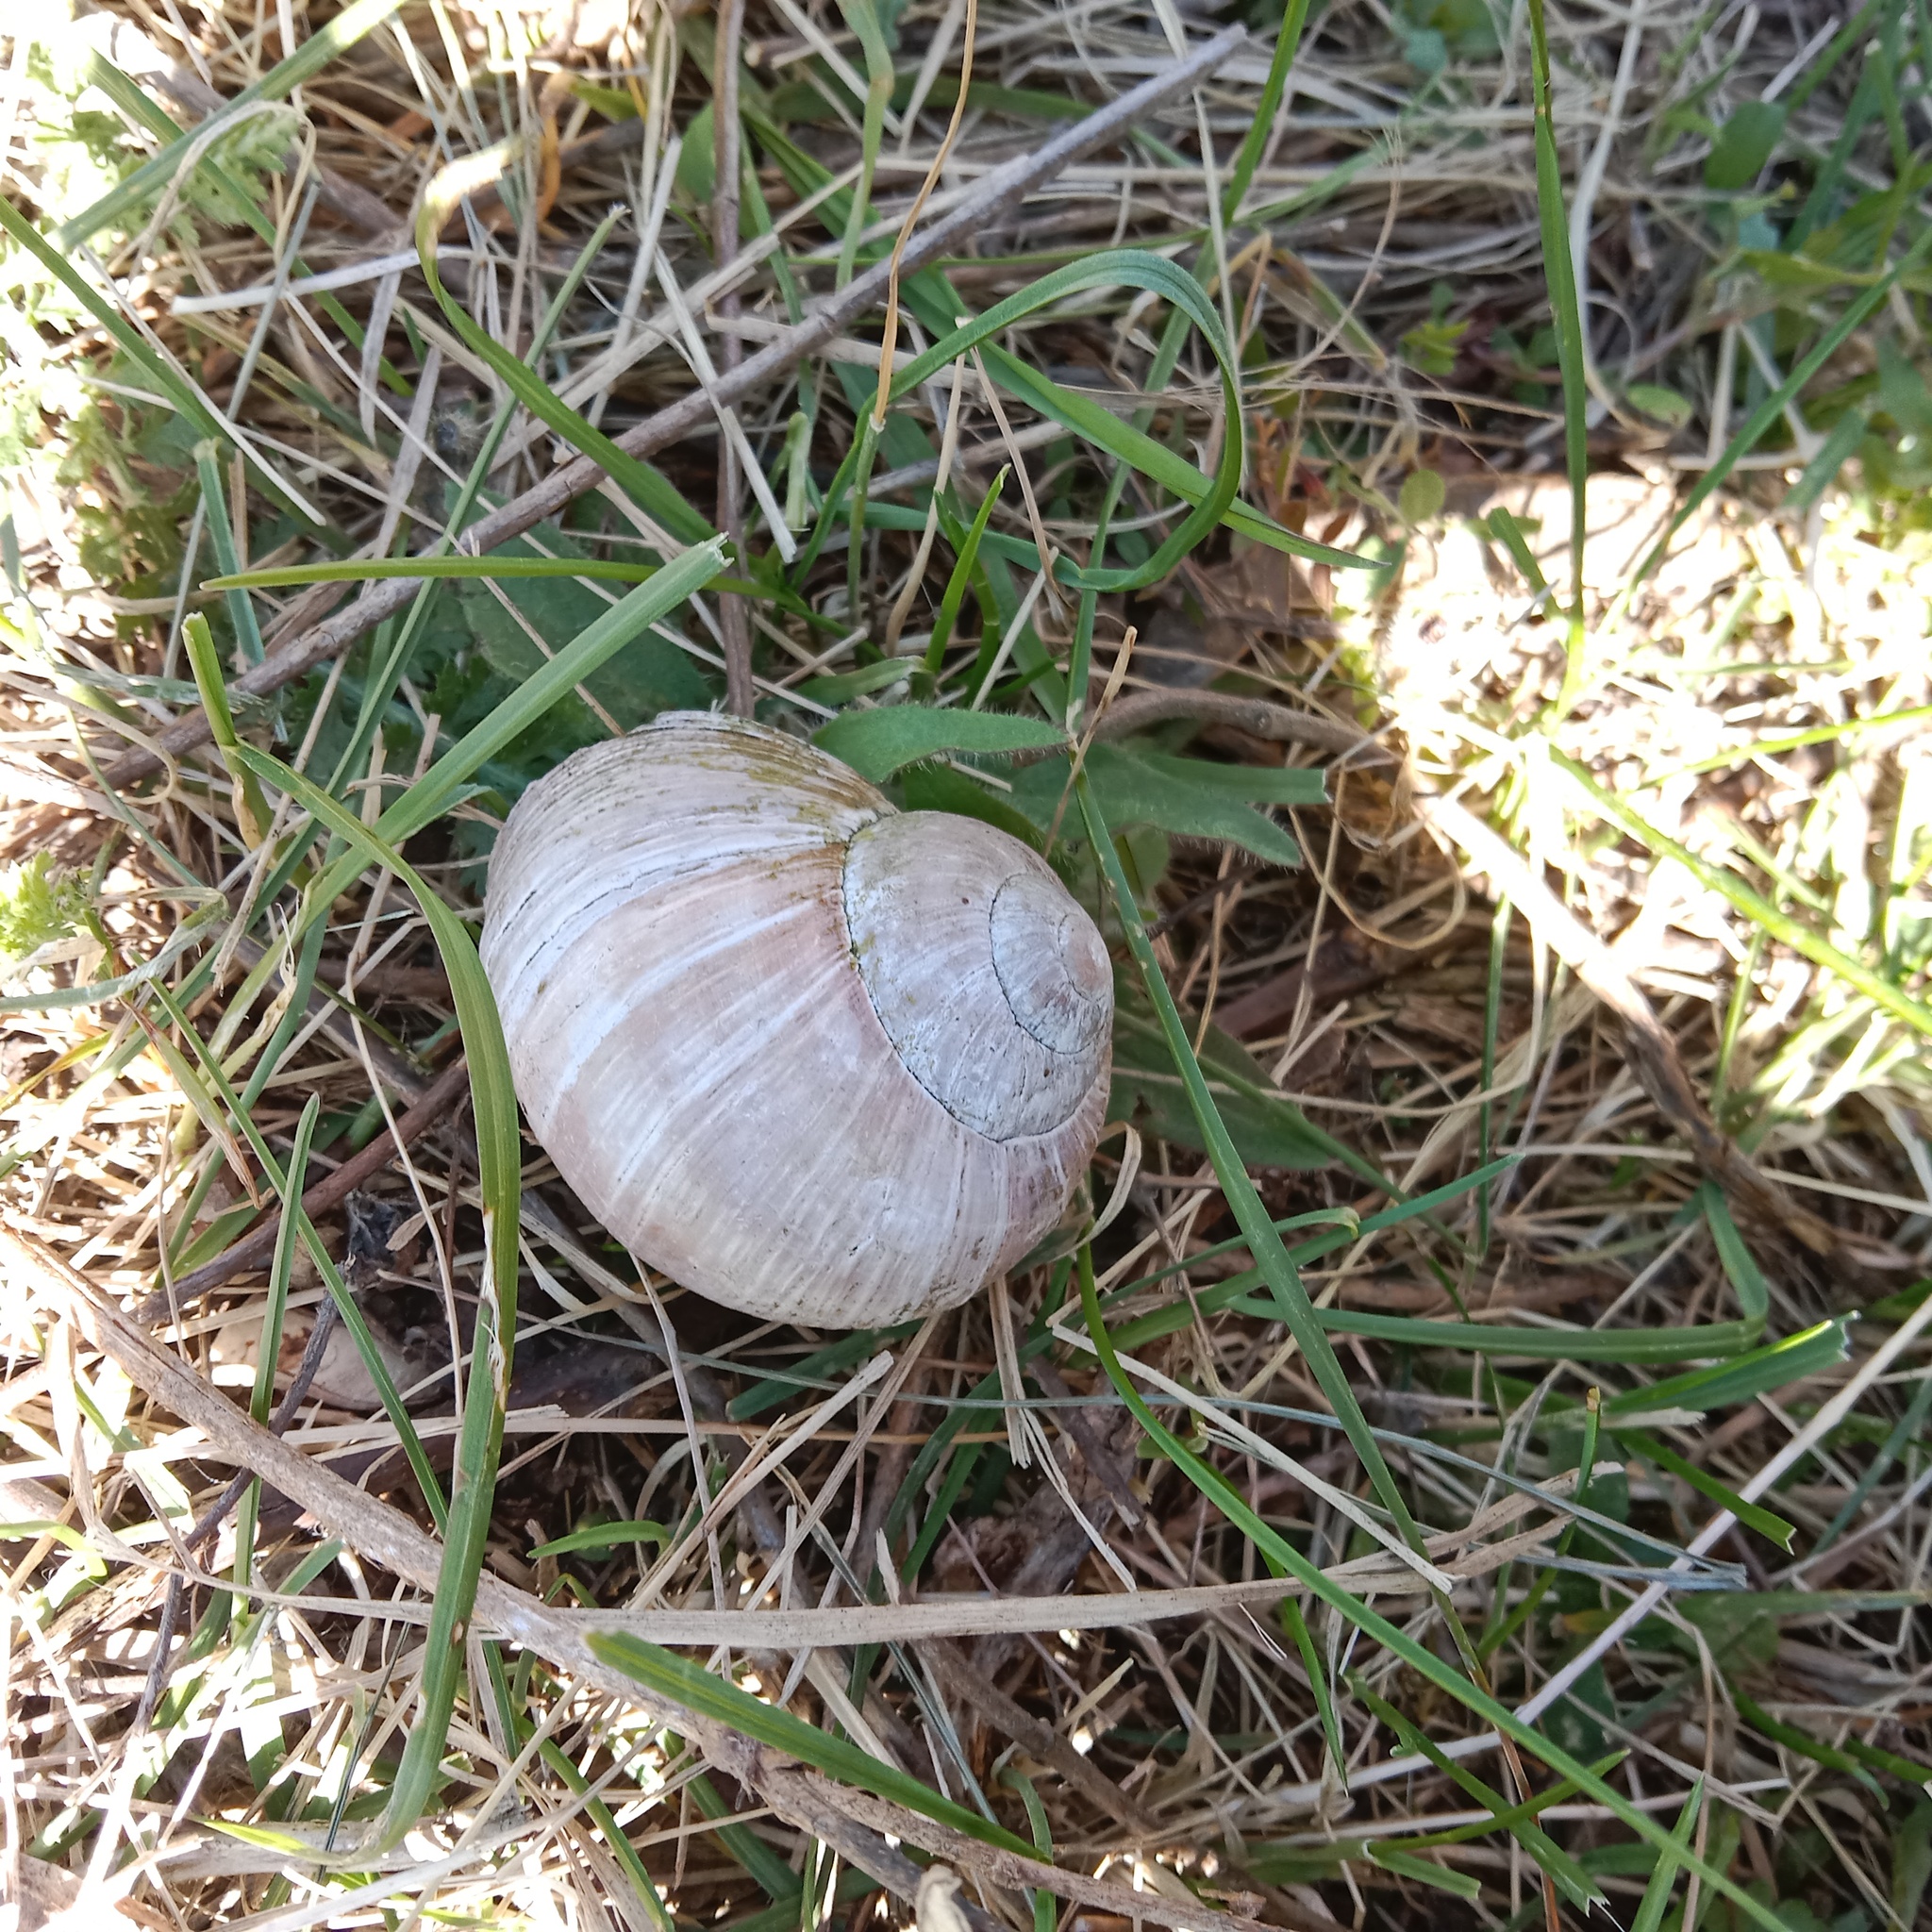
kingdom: Animalia
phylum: Mollusca
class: Gastropoda
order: Stylommatophora
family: Helicidae
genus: Helix
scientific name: Helix pomatia
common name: Roman snail
